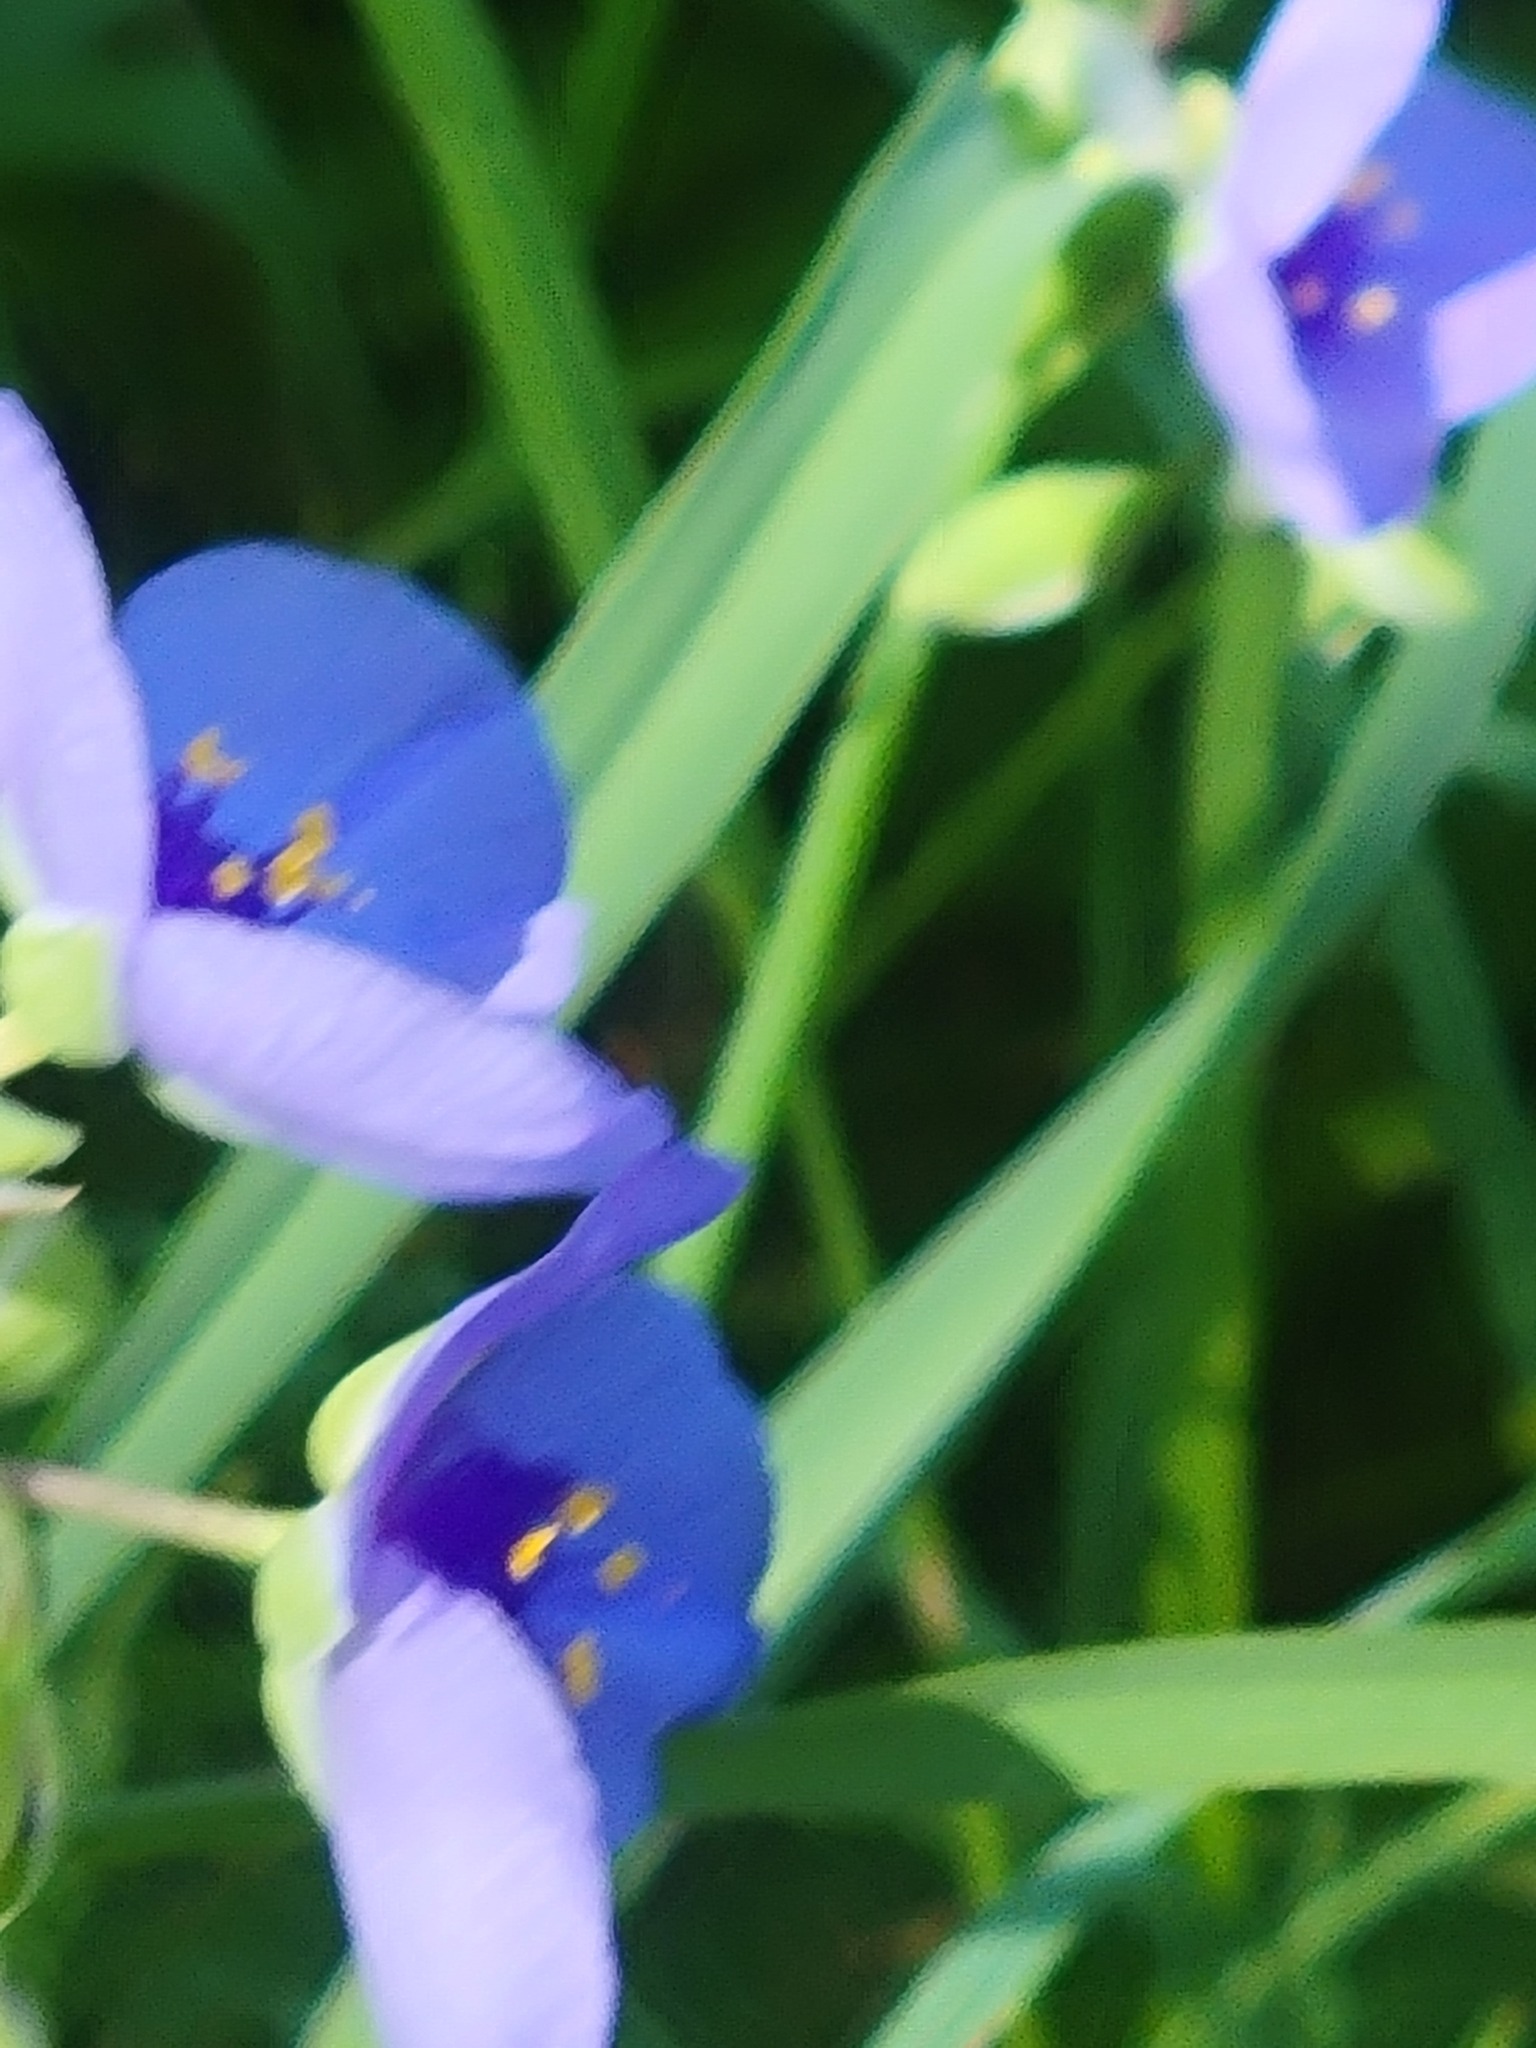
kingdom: Plantae
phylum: Tracheophyta
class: Liliopsida
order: Commelinales
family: Commelinaceae
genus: Tradescantia
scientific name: Tradescantia ohiensis
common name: Ohio spiderwort
